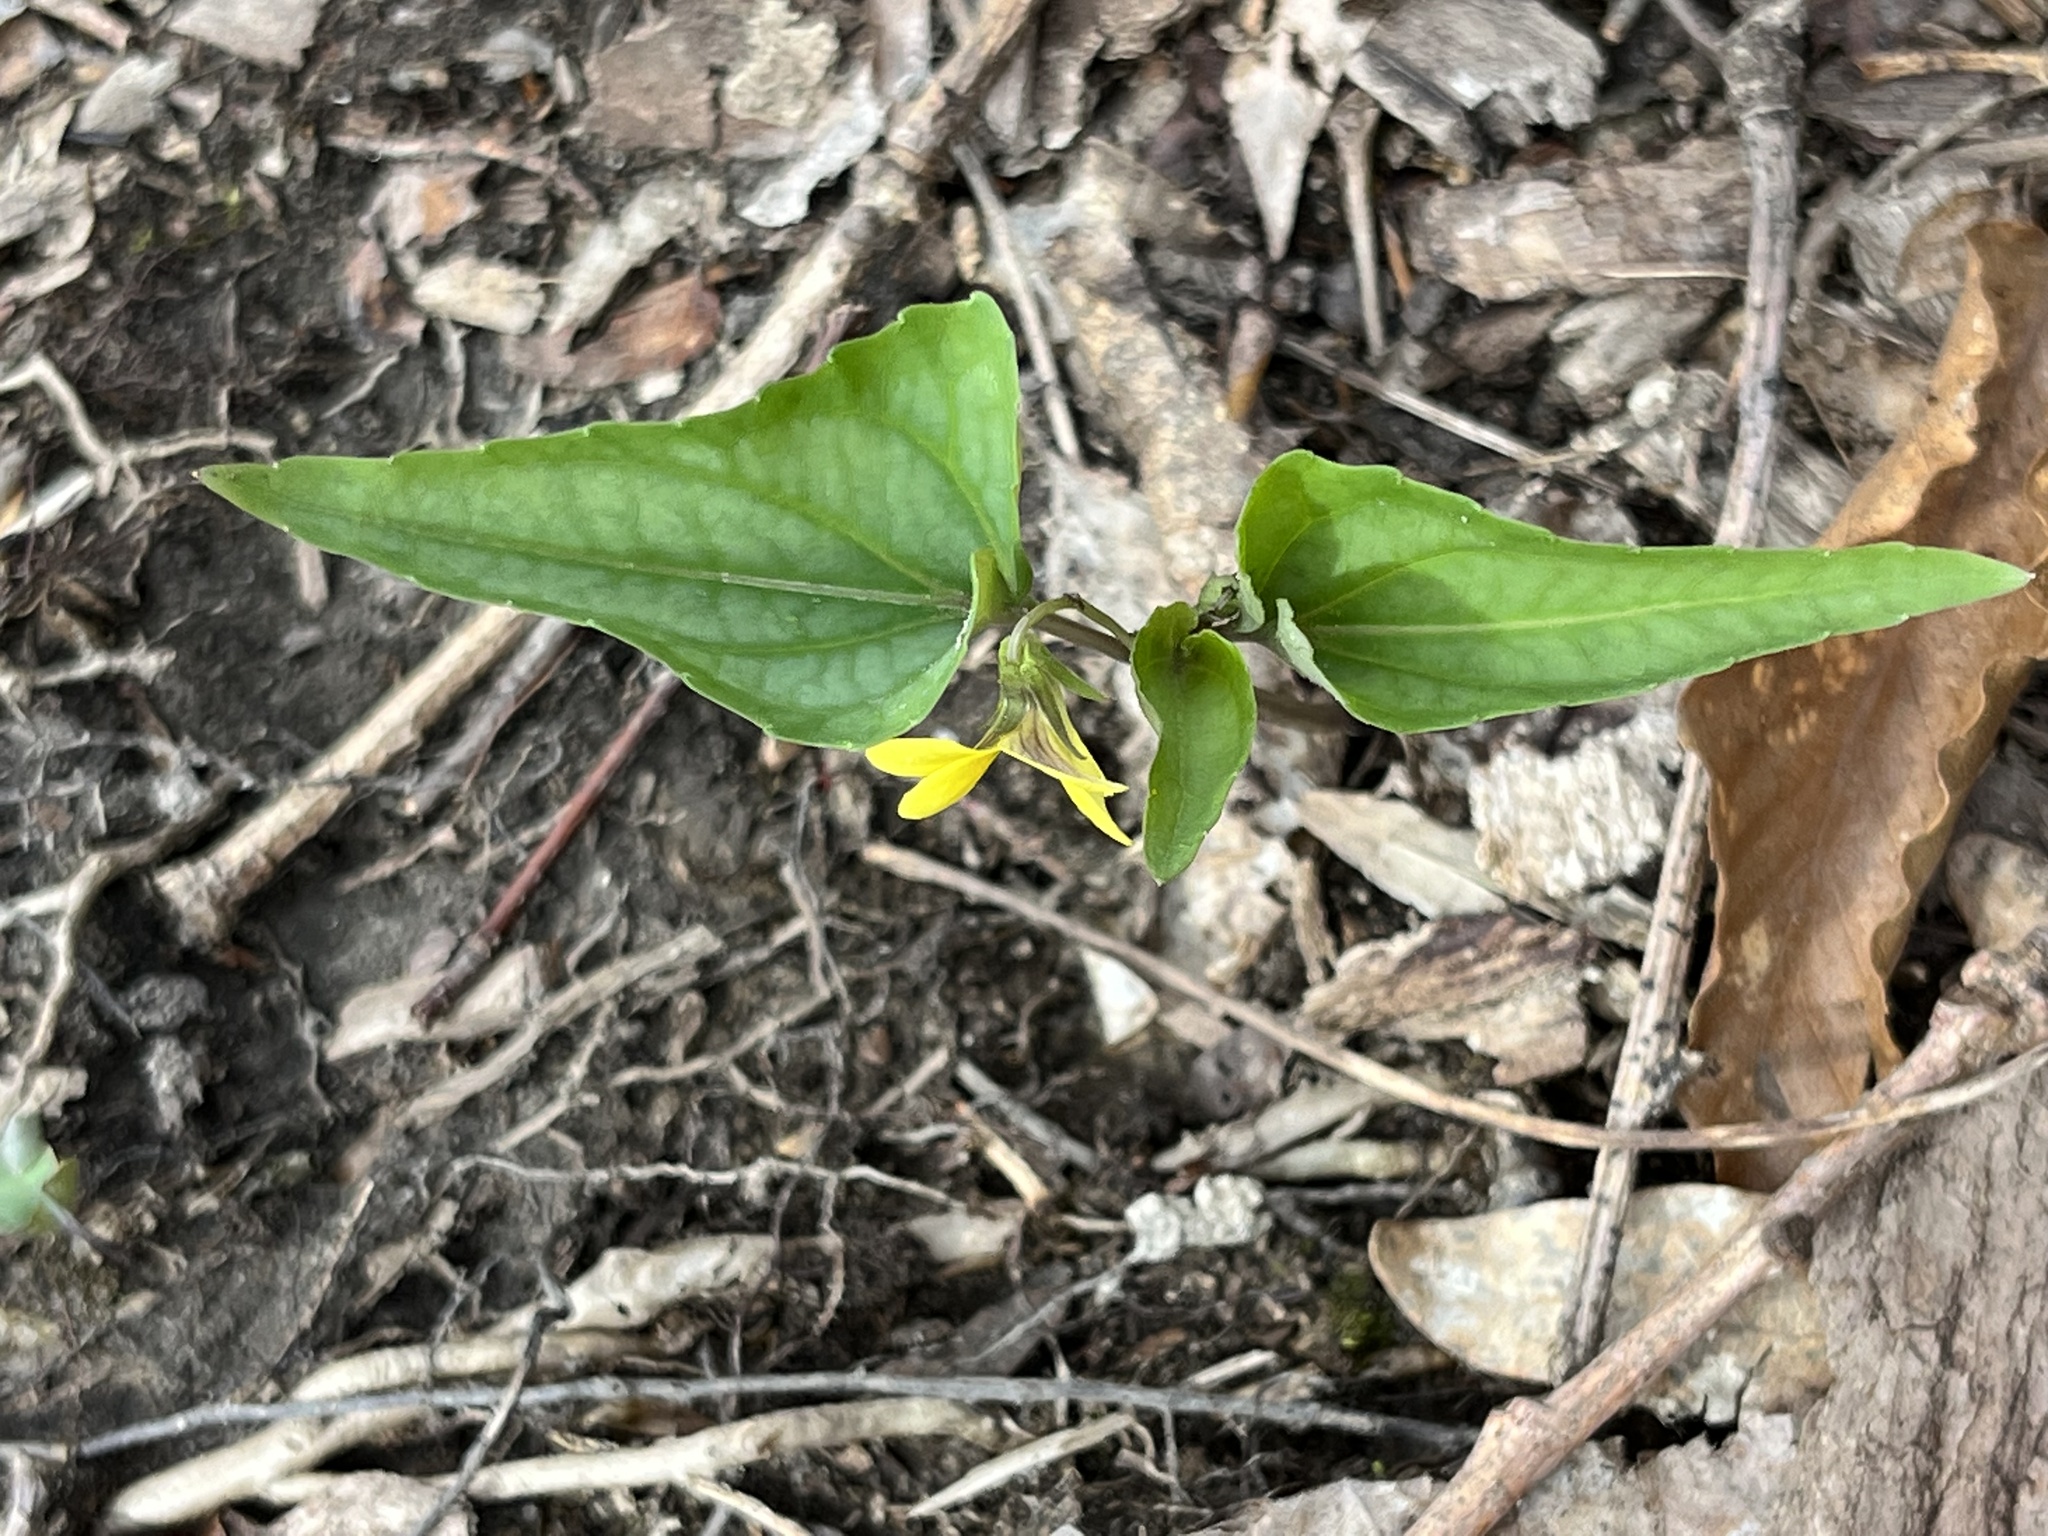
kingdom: Plantae
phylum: Tracheophyta
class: Magnoliopsida
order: Malpighiales
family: Violaceae
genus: Viola
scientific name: Viola hastata
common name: Spear-leaf violet
